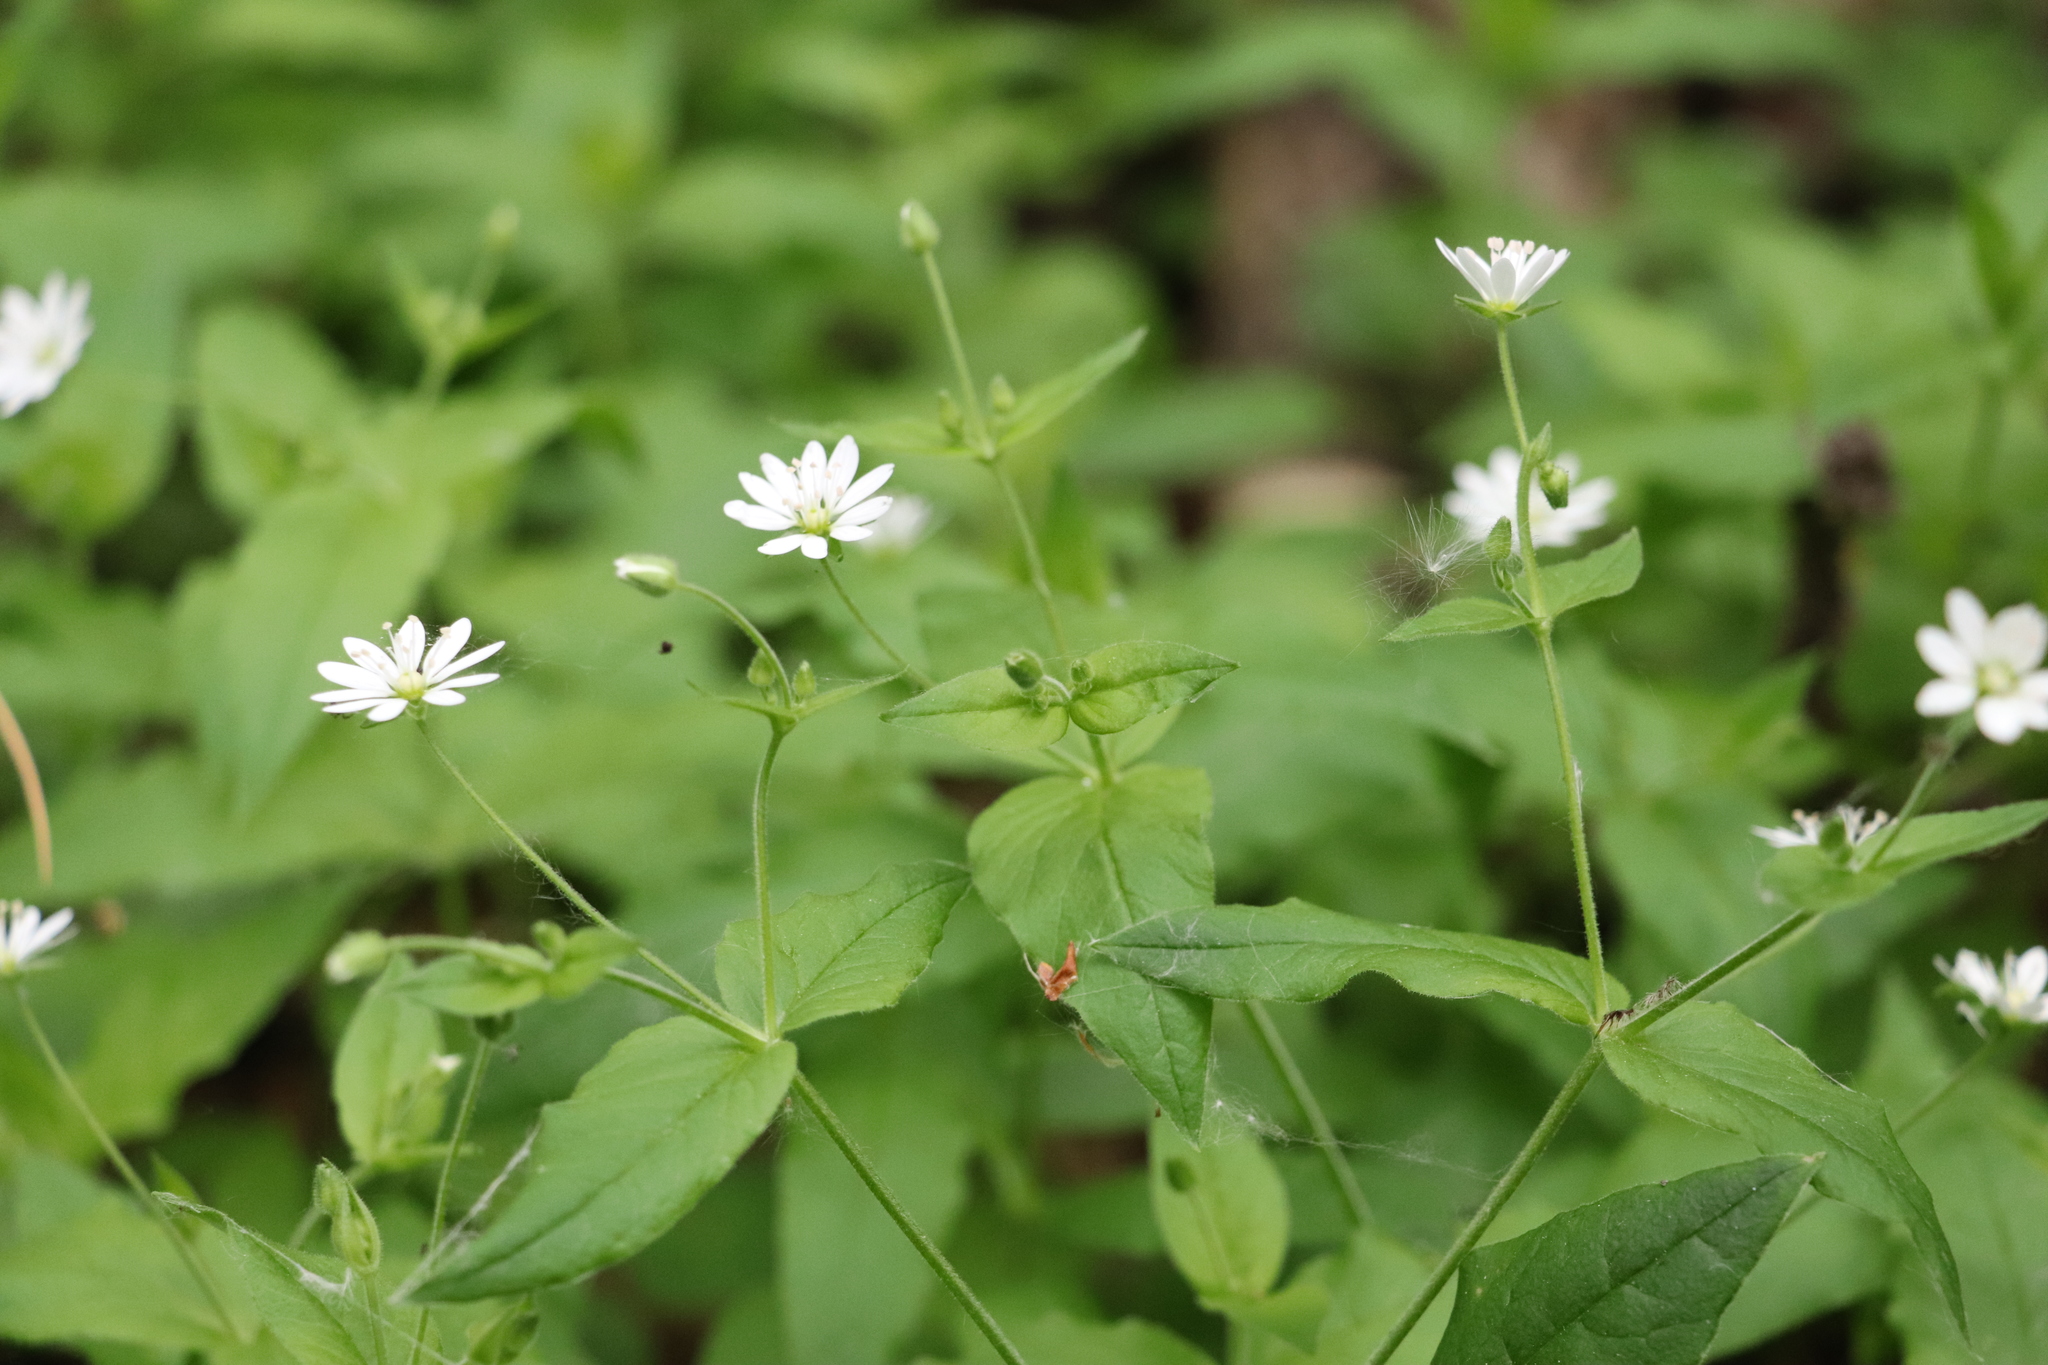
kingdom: Plantae
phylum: Tracheophyta
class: Magnoliopsida
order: Caryophyllales
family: Caryophyllaceae
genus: Stellaria
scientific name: Stellaria bungeana
